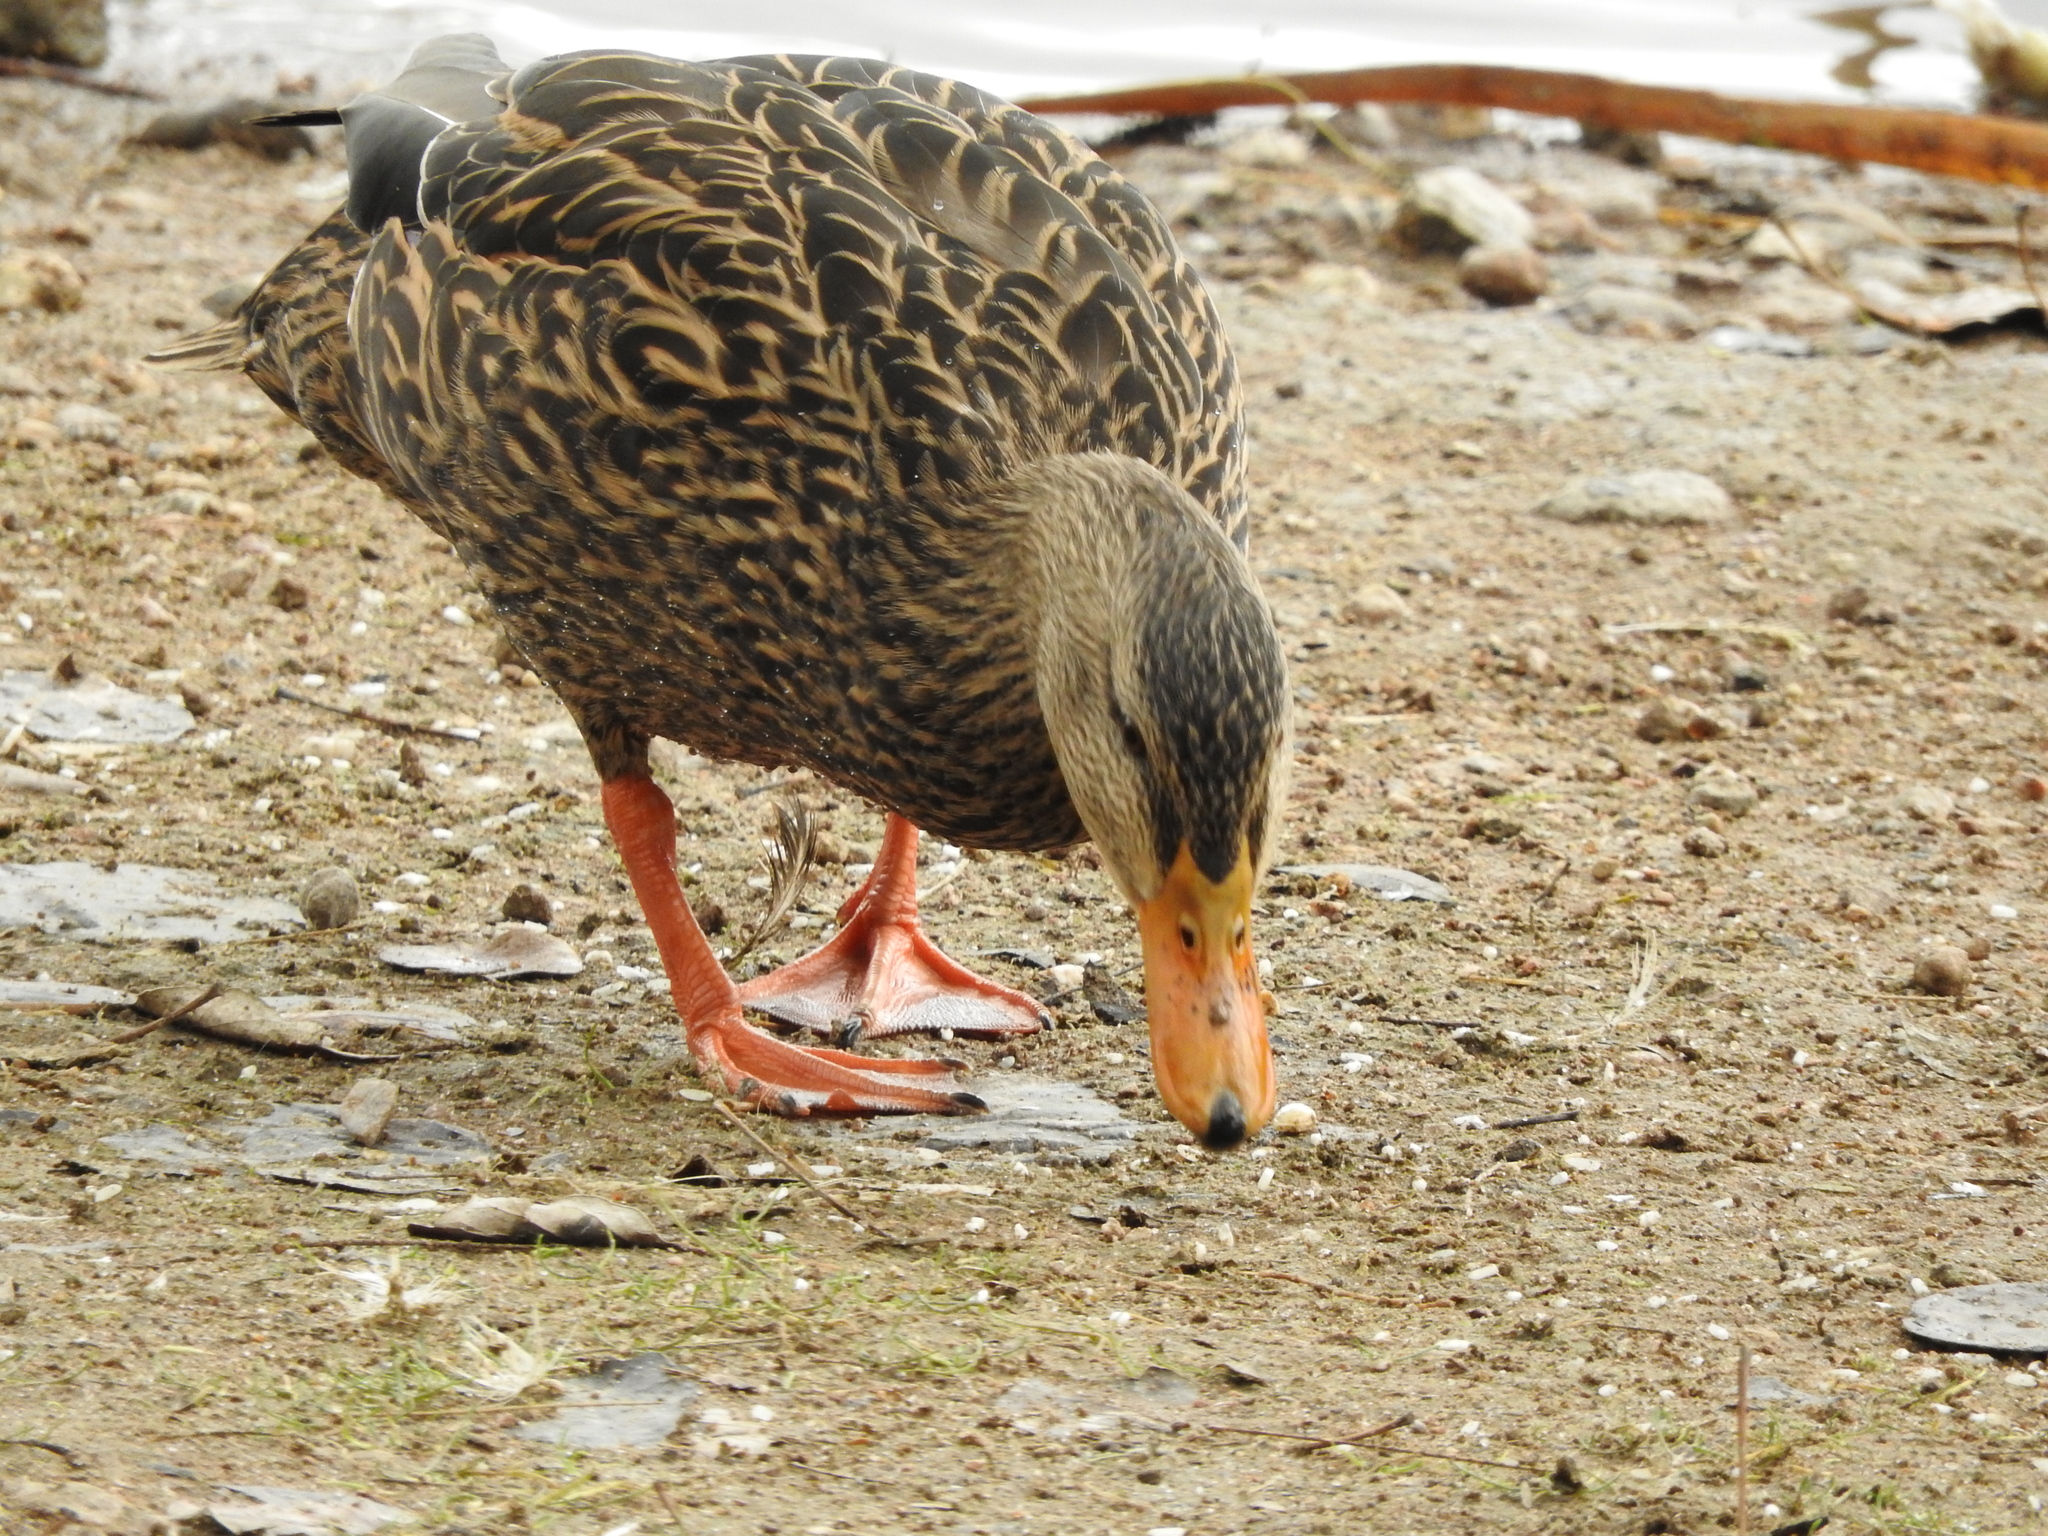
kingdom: Animalia
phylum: Chordata
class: Aves
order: Anseriformes
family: Anatidae
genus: Anas
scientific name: Anas diazi
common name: Mexican duck
